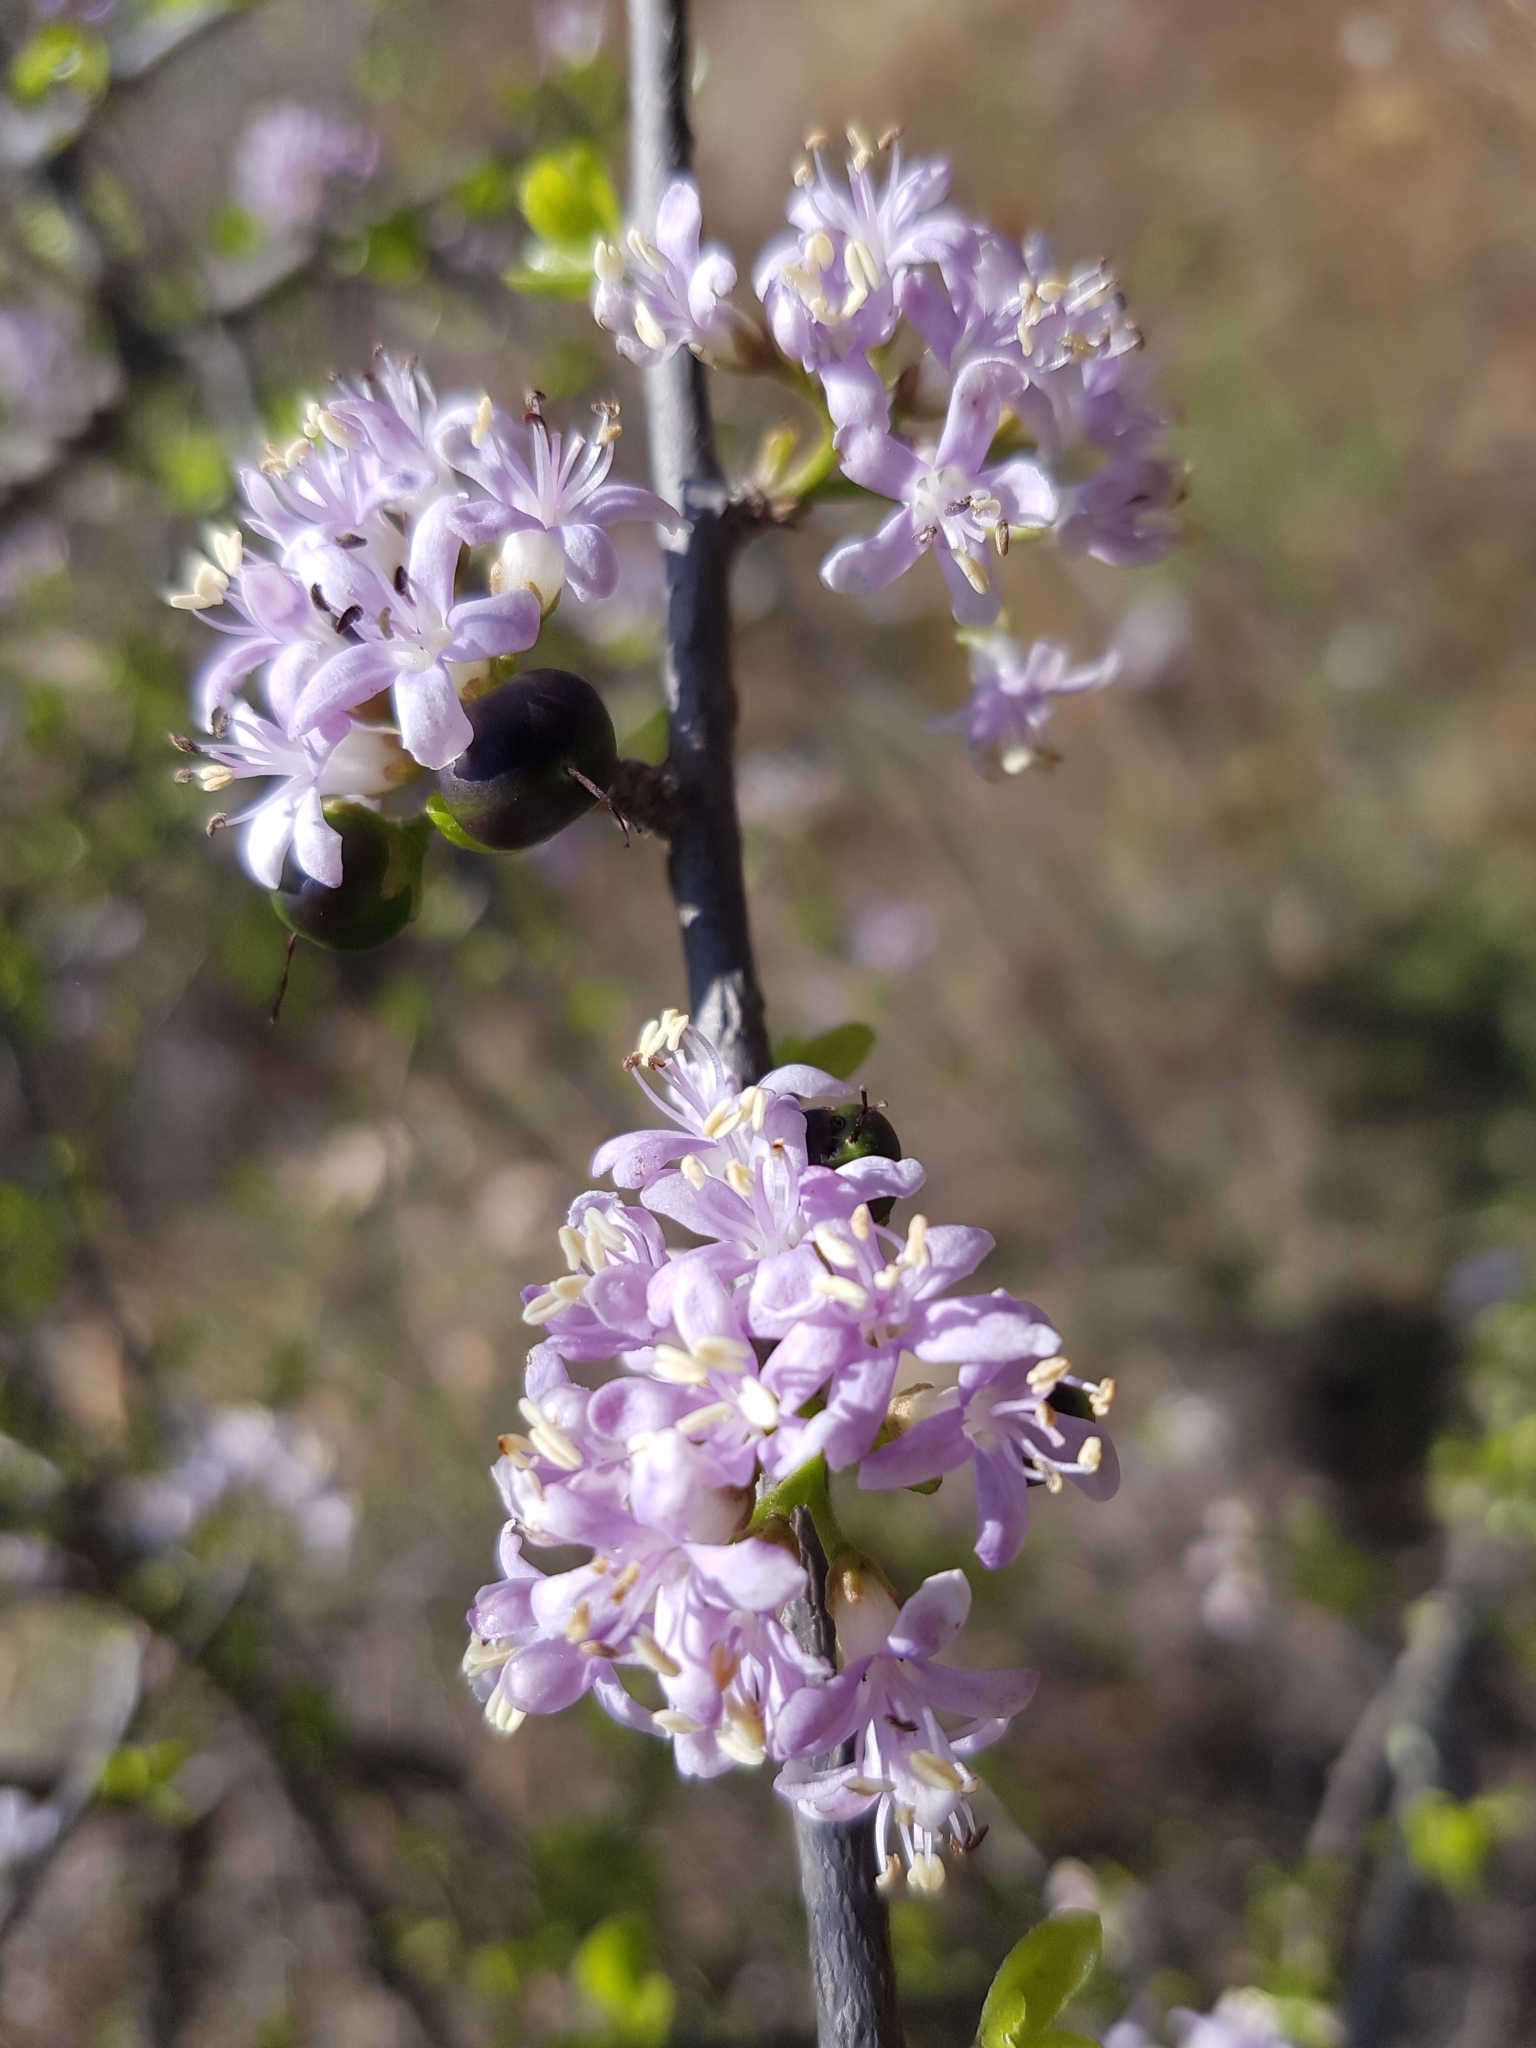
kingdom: Plantae
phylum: Tracheophyta
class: Magnoliopsida
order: Boraginales
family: Ehretiaceae
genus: Ehretia
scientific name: Ehretia rigida
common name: Cape lilac
